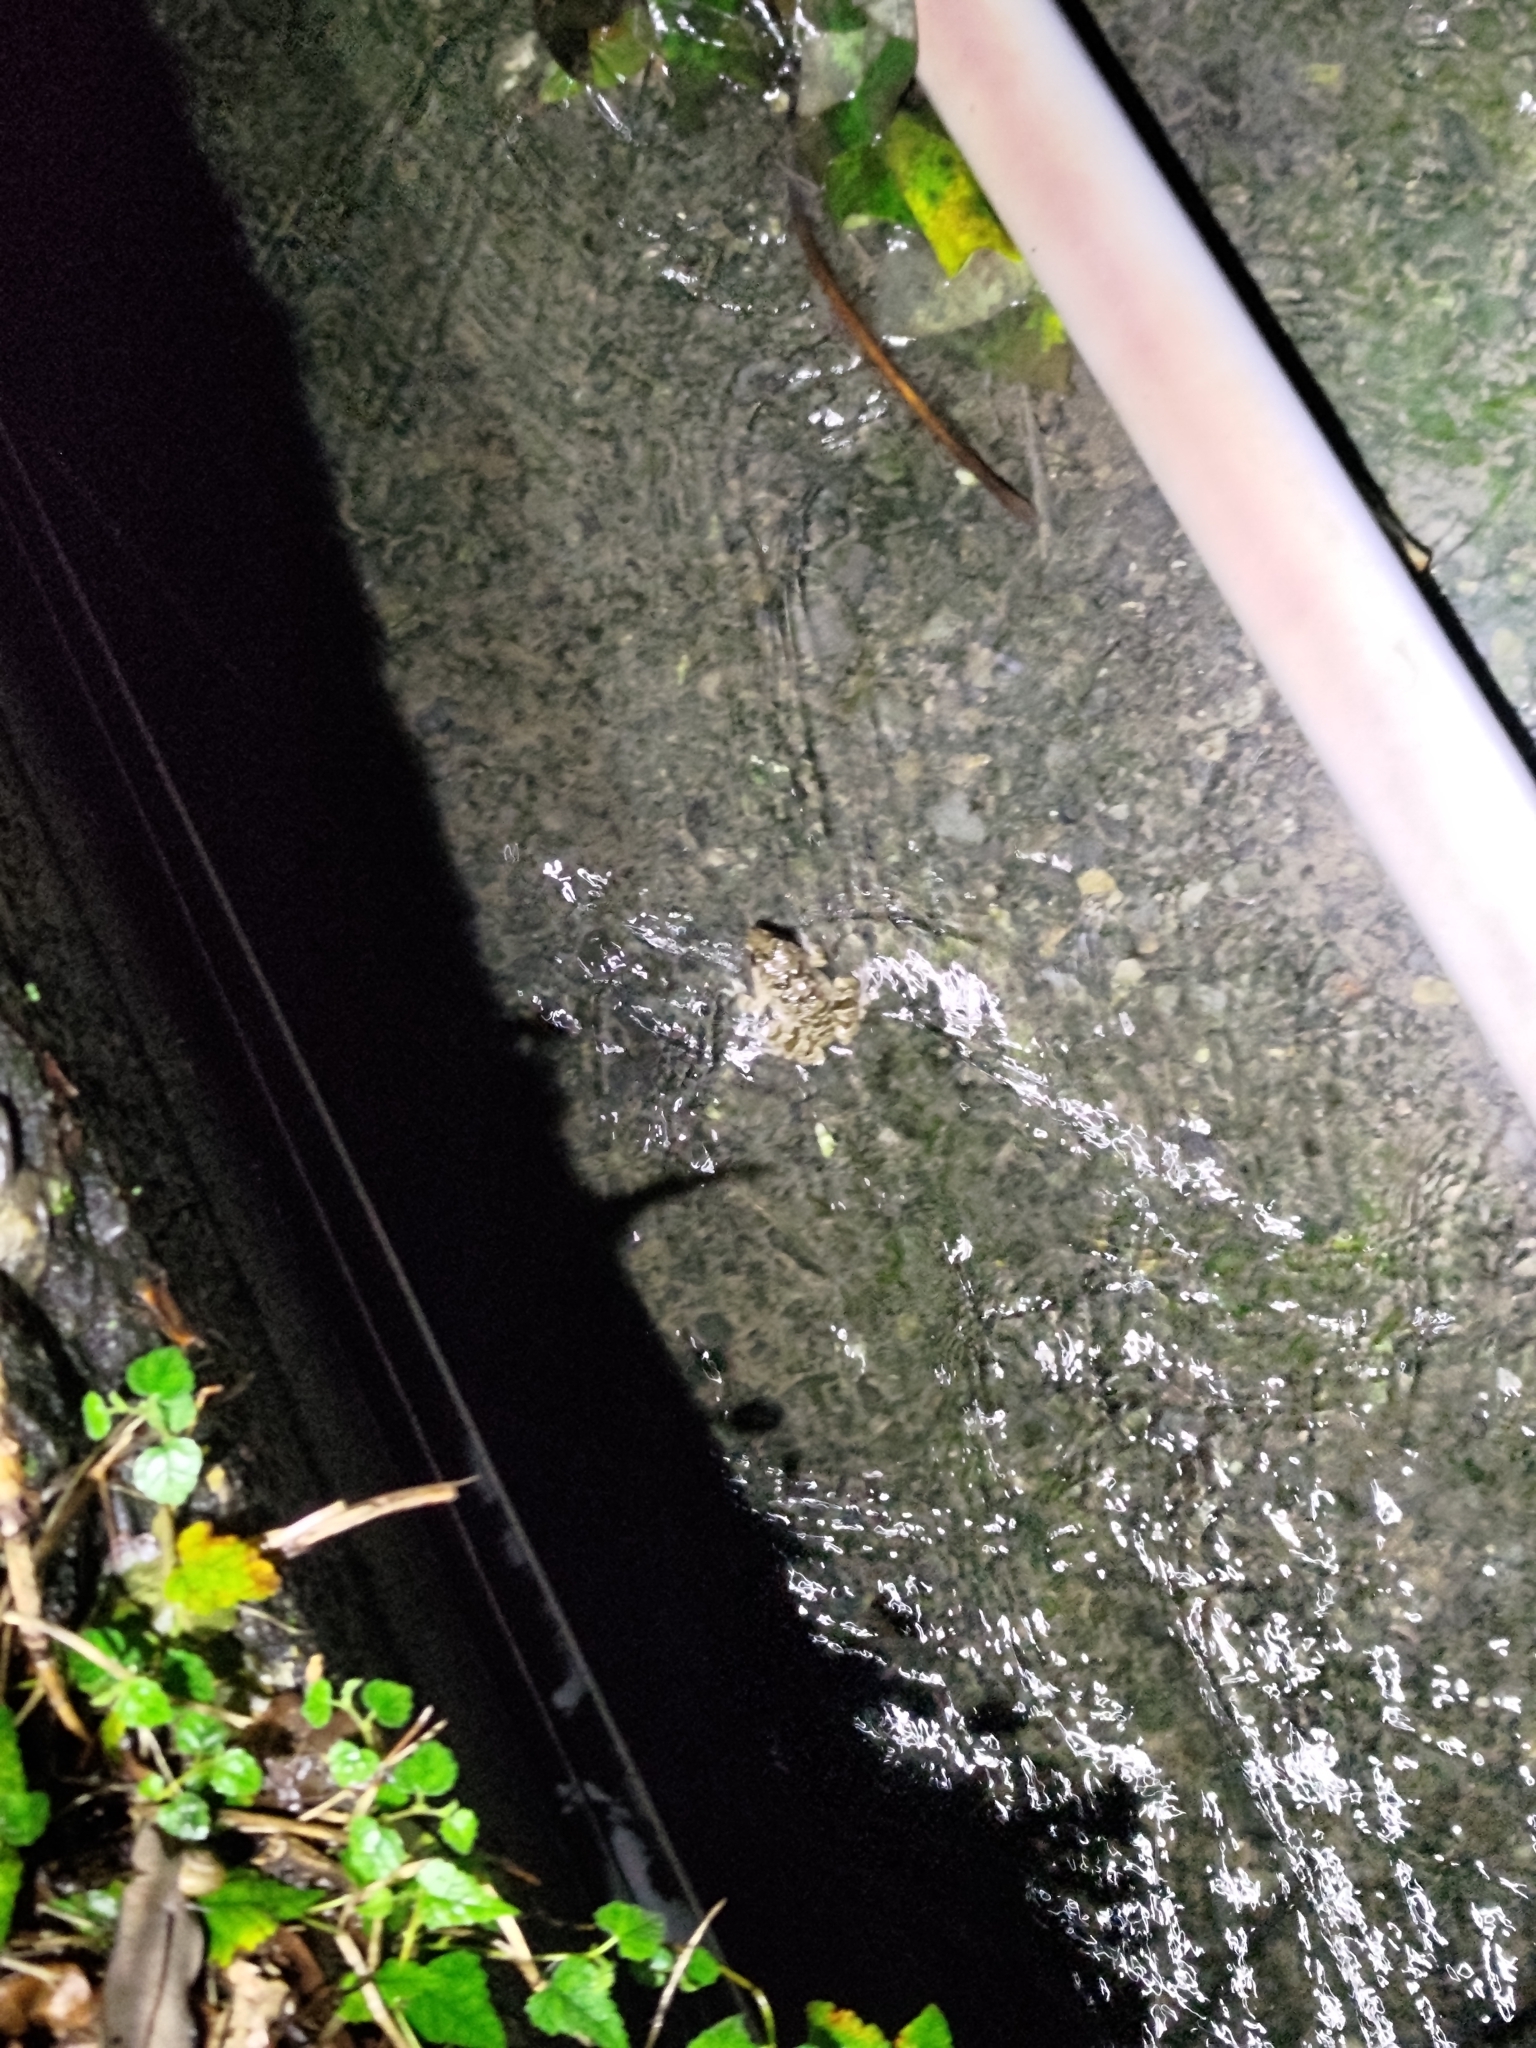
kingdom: Animalia
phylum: Chordata
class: Amphibia
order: Anura
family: Dicroglossidae
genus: Fejervarya
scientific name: Fejervarya limnocharis
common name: Asian grass frog/common pond frog/field frog/grass frog/indian rice frog
